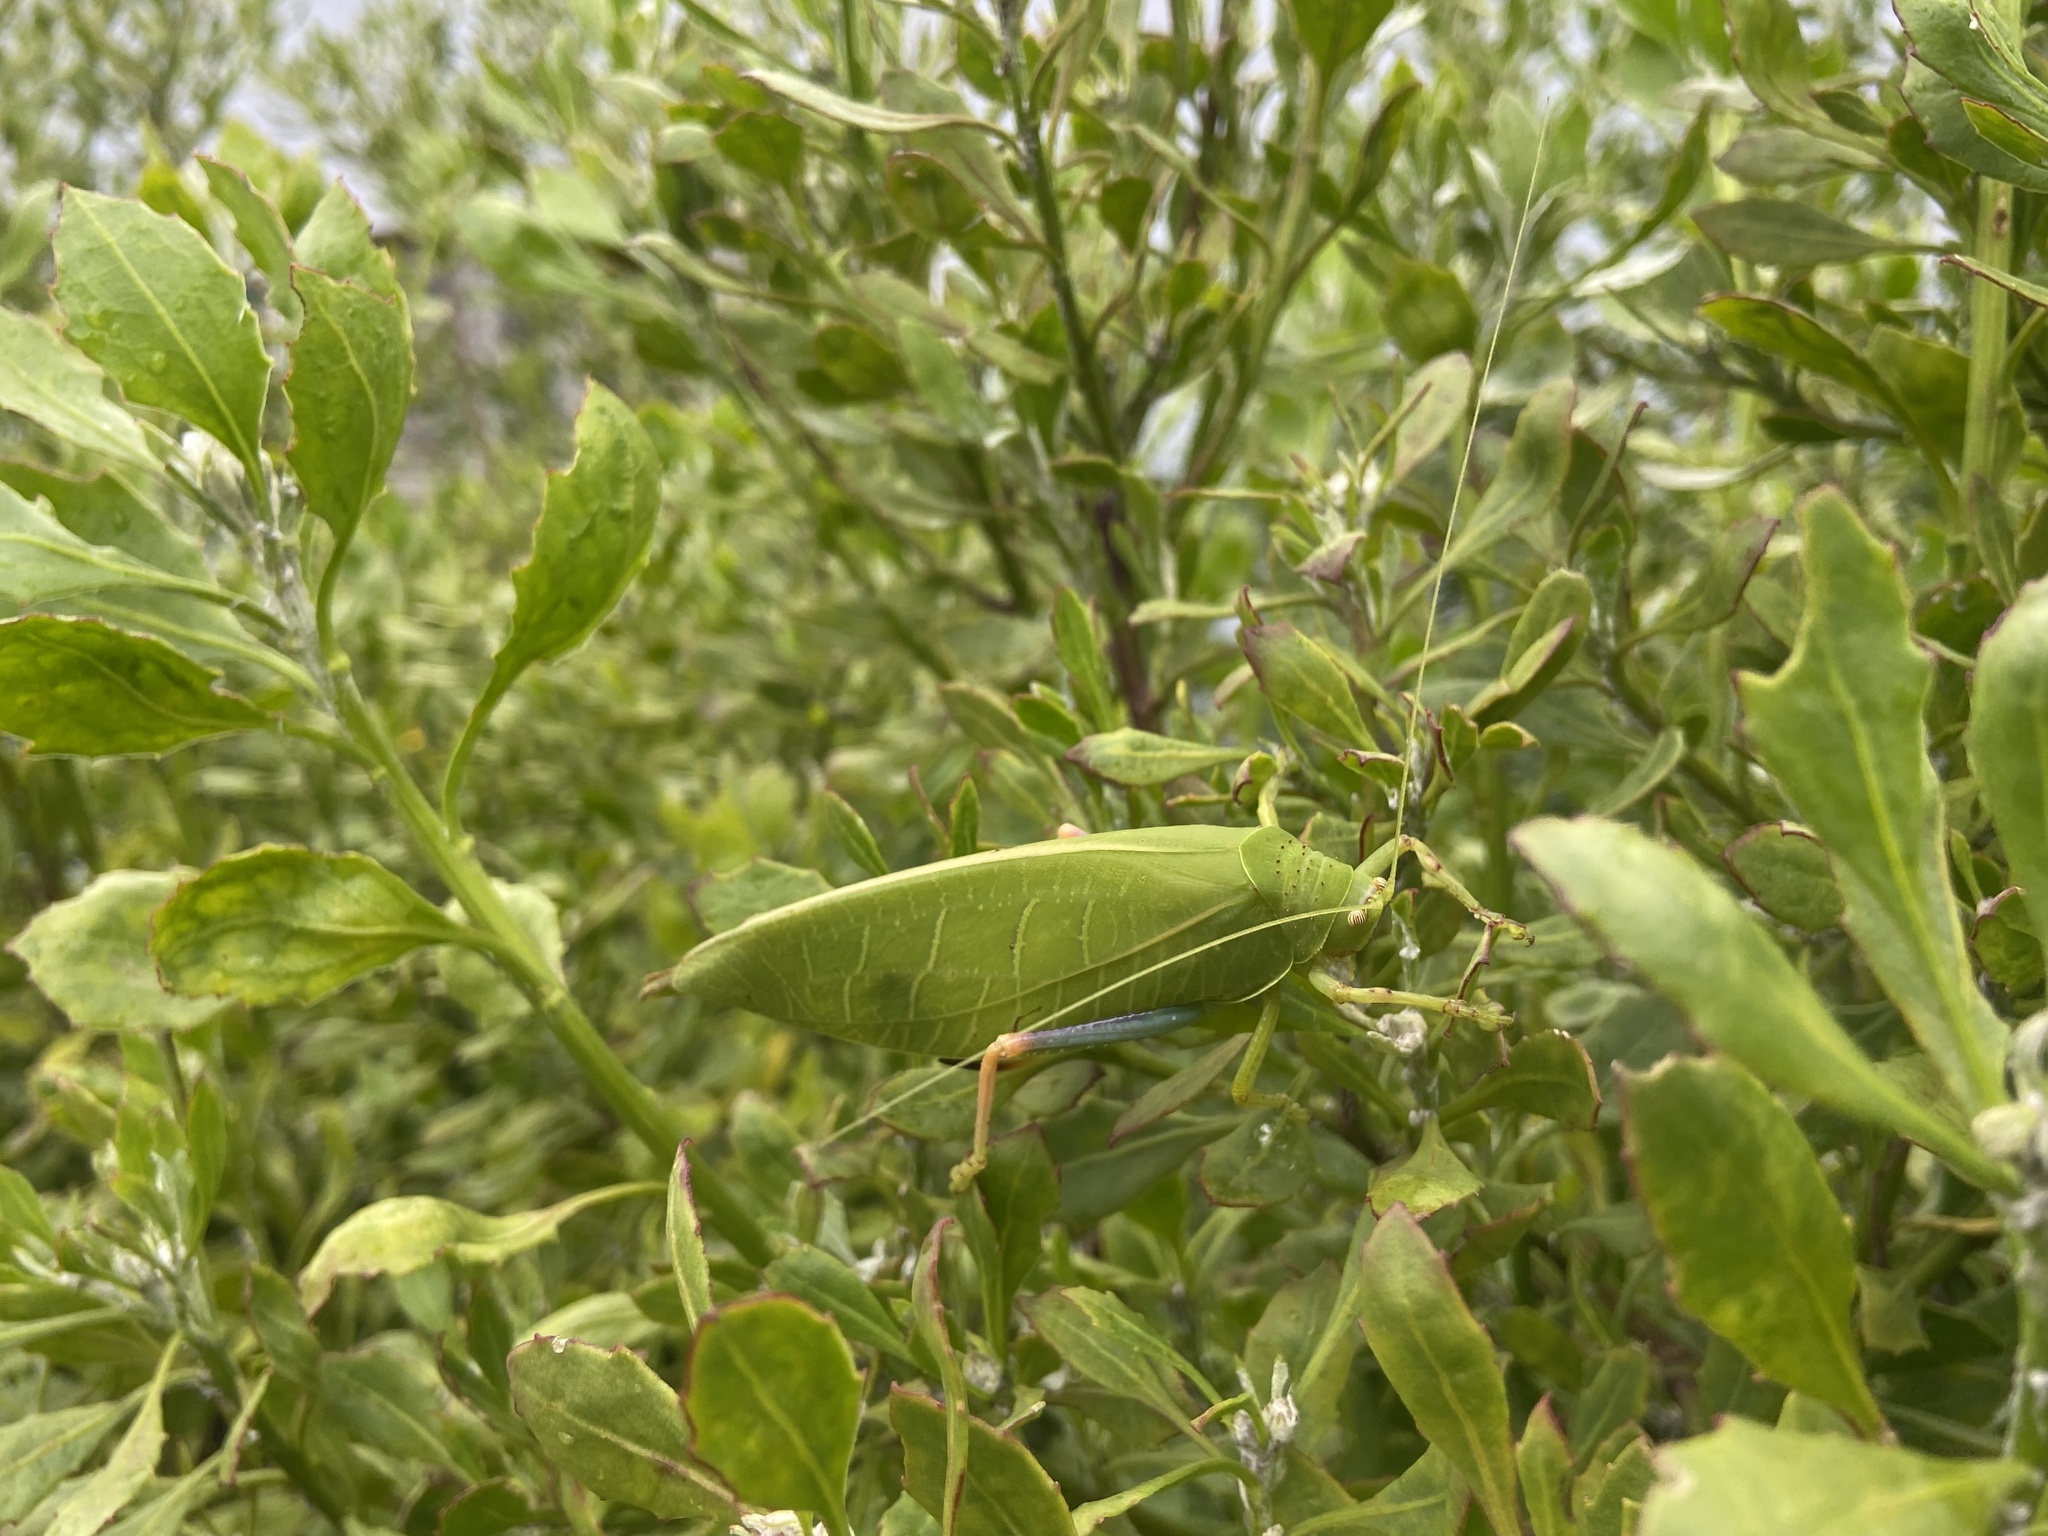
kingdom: Animalia
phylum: Arthropoda
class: Insecta
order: Orthoptera
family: Tettigoniidae
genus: Zabalius
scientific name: Zabalius ophthalmicus
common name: Blue-legged sylvan katydid
